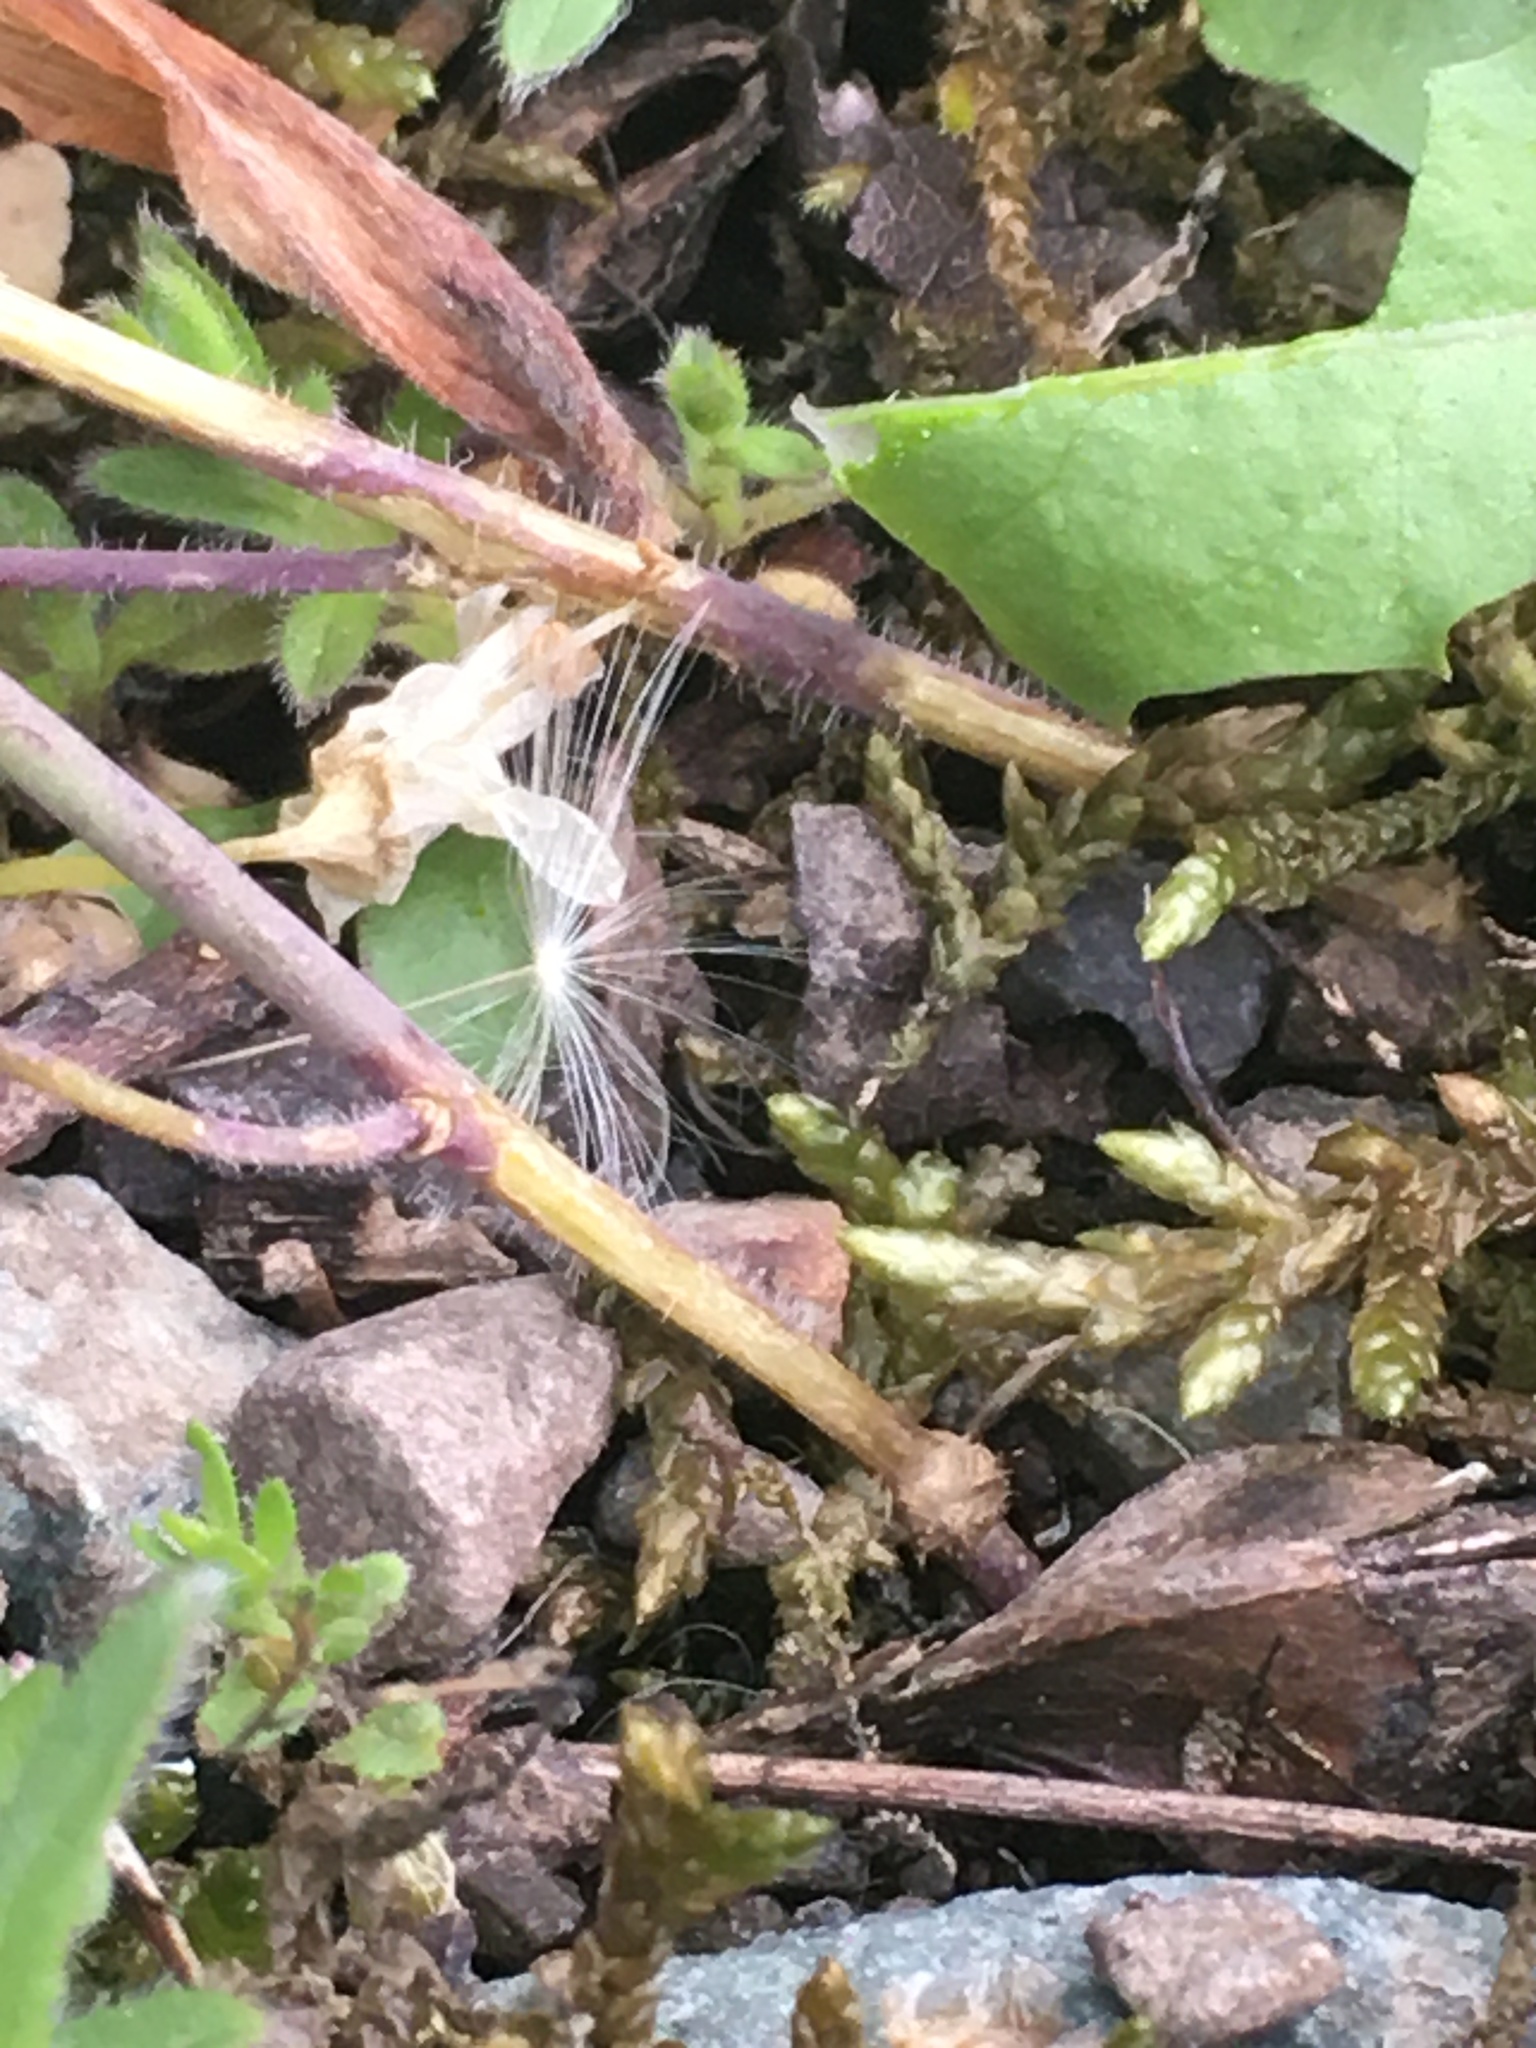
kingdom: Plantae
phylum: Tracheophyta
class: Magnoliopsida
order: Brassicales
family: Brassicaceae
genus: Arabidopsis
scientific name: Arabidopsis thaliana
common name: Thale cress
